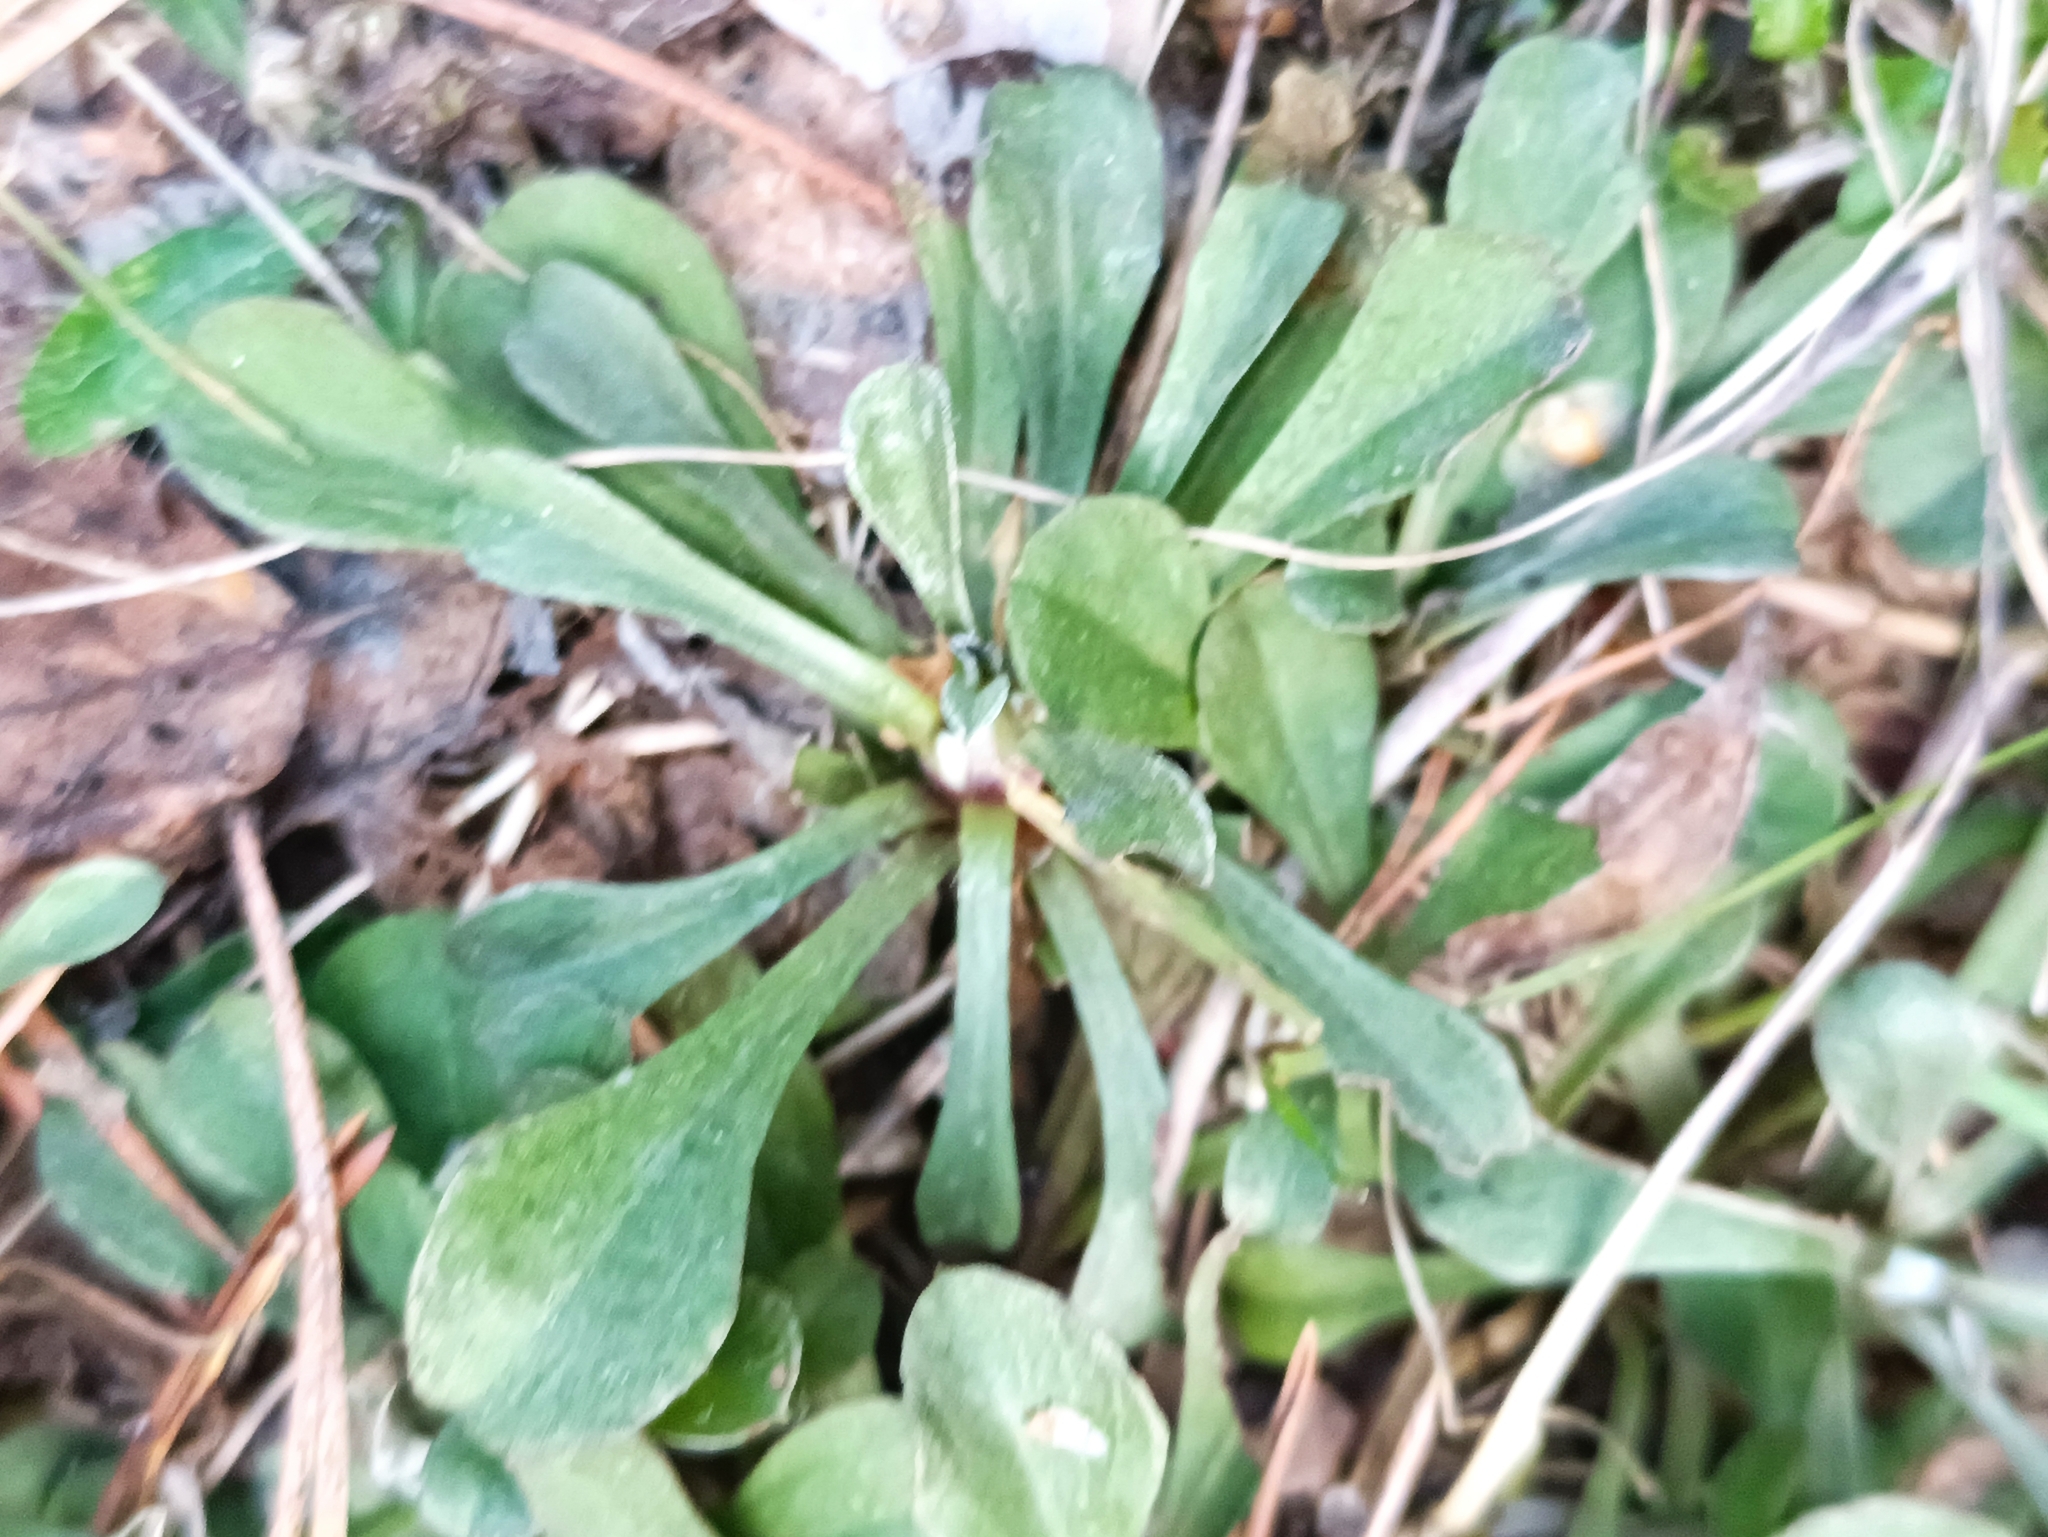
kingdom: Plantae
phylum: Tracheophyta
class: Magnoliopsida
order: Asterales
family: Asteraceae
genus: Antennaria
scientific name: Antennaria dioica
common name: Mountain everlasting
